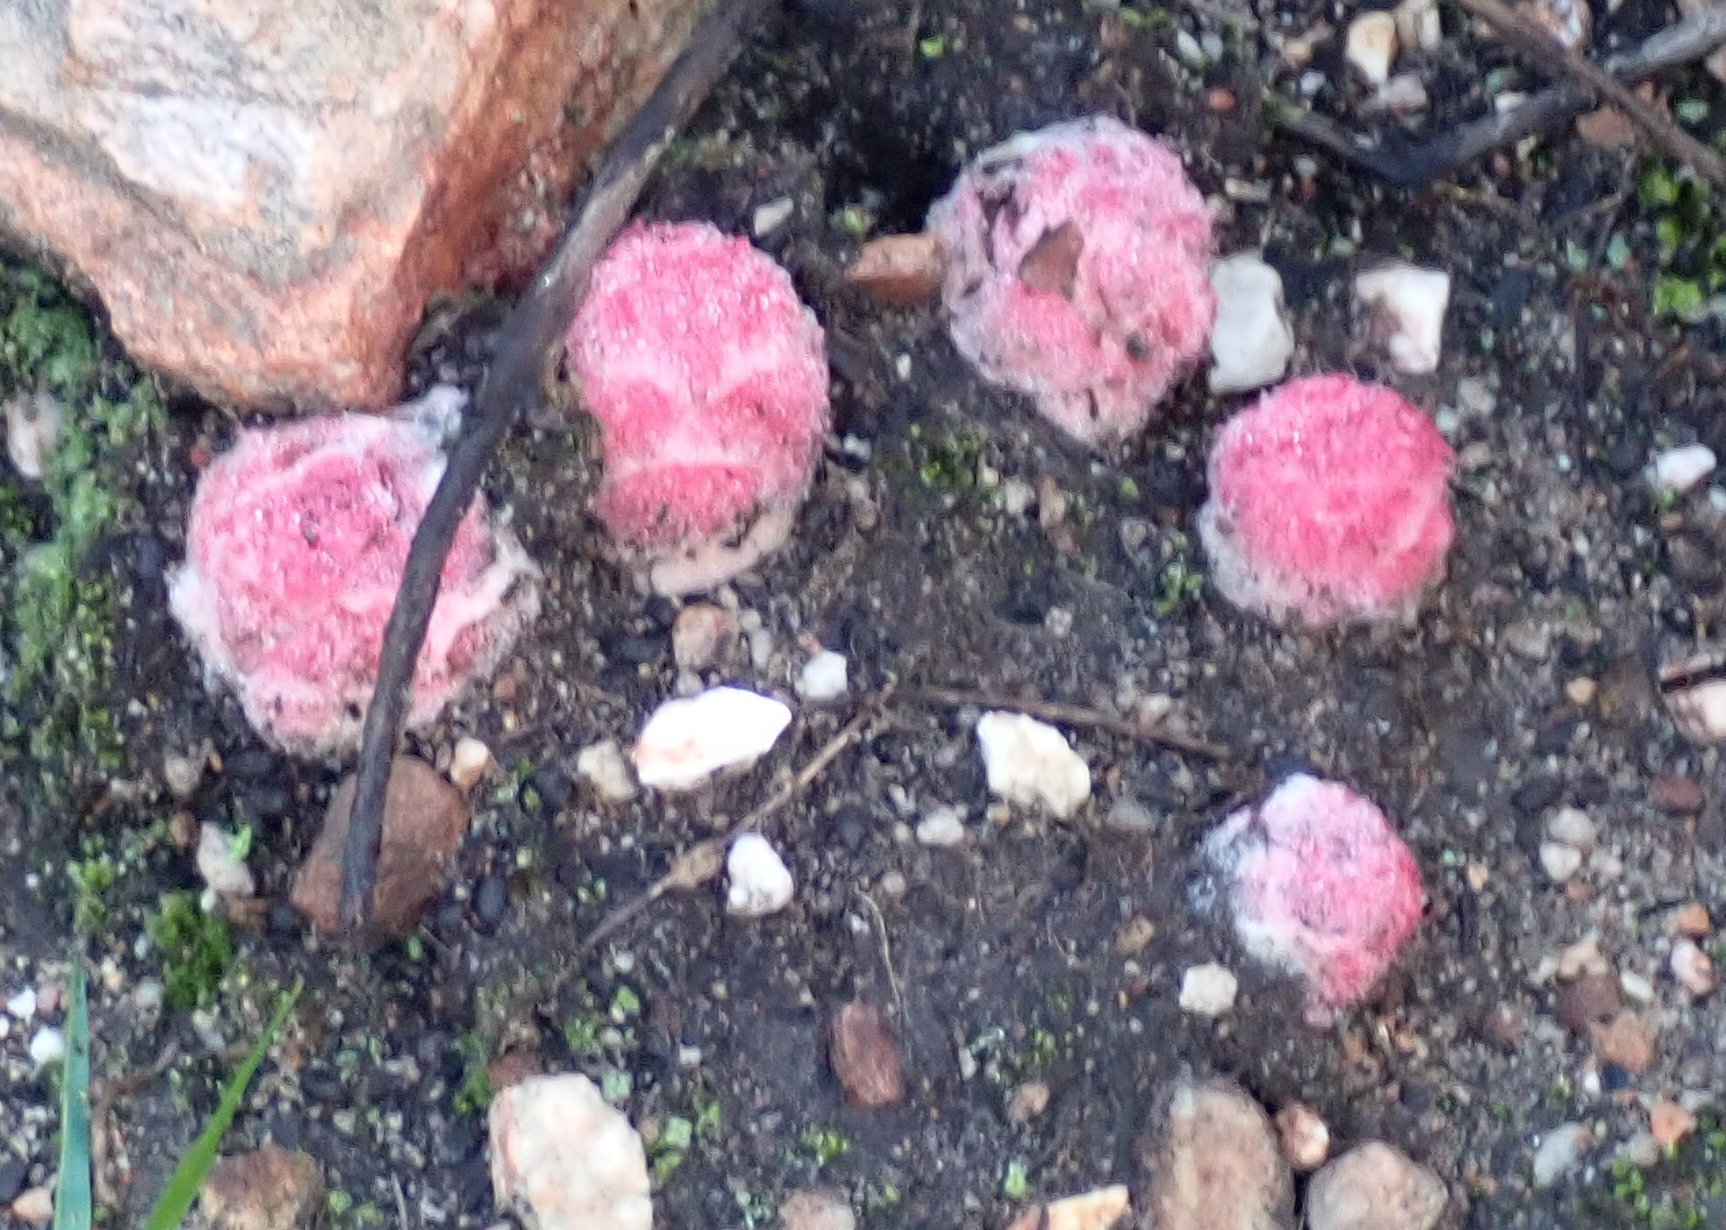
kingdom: Plantae
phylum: Tracheophyta
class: Magnoliopsida
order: Lamiales
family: Orobanchaceae
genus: Harveya
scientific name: Harveya roseoalba
